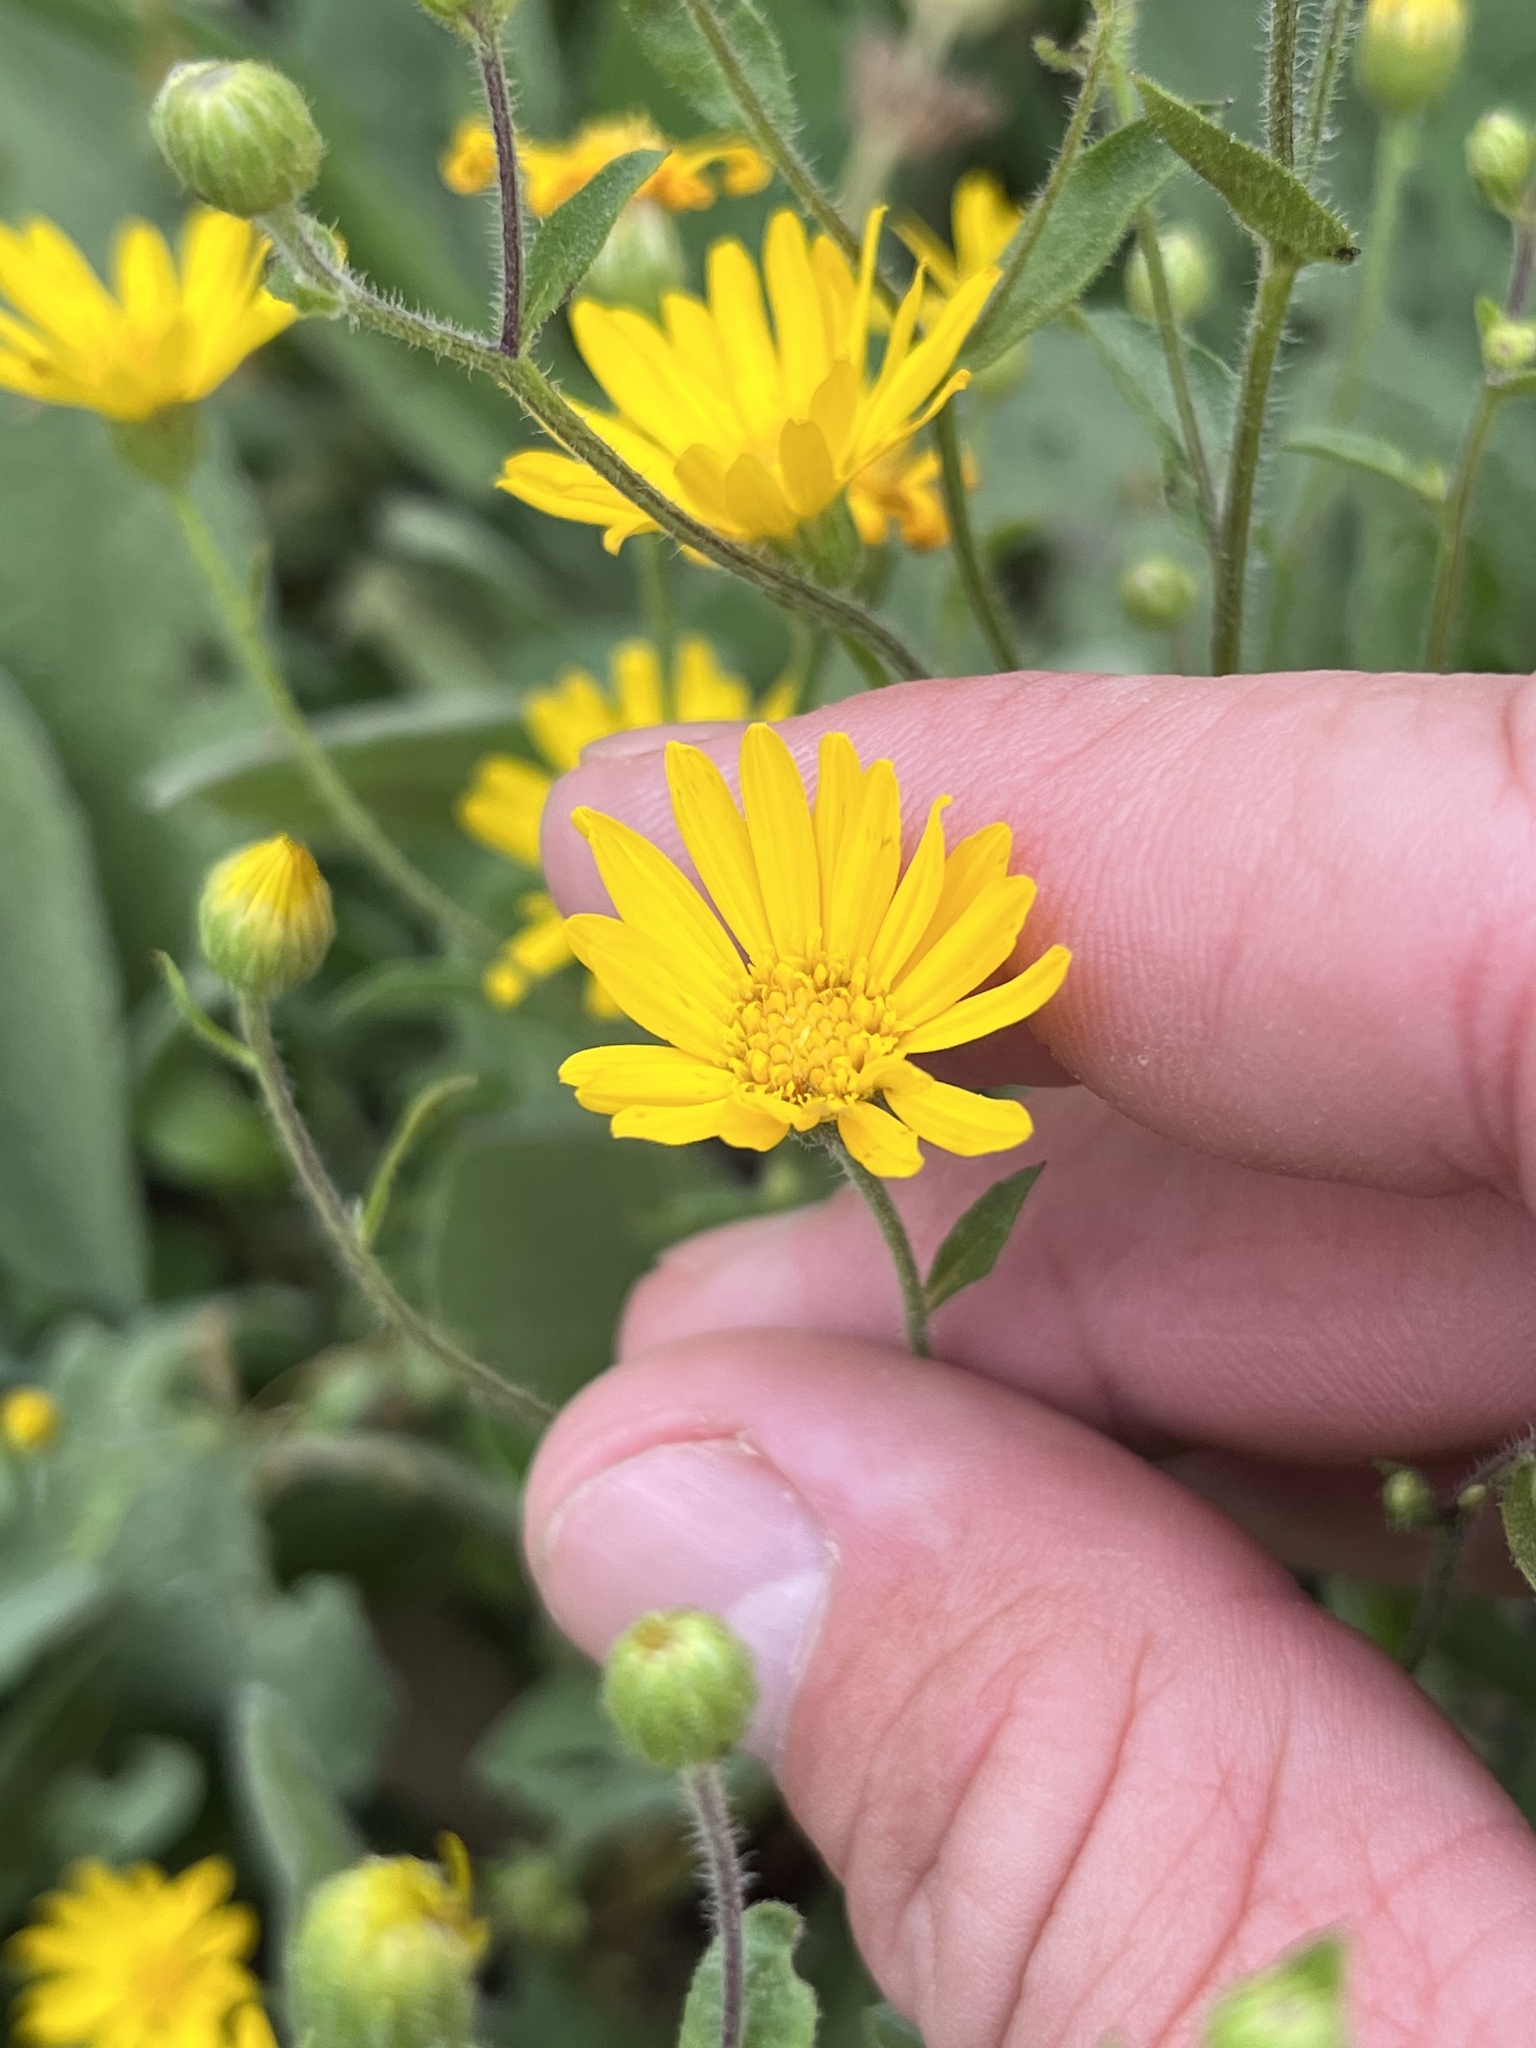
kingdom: Plantae
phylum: Tracheophyta
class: Magnoliopsida
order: Asterales
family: Asteraceae
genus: Heterotheca
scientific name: Heterotheca subaxillaris
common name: Camphorweed
